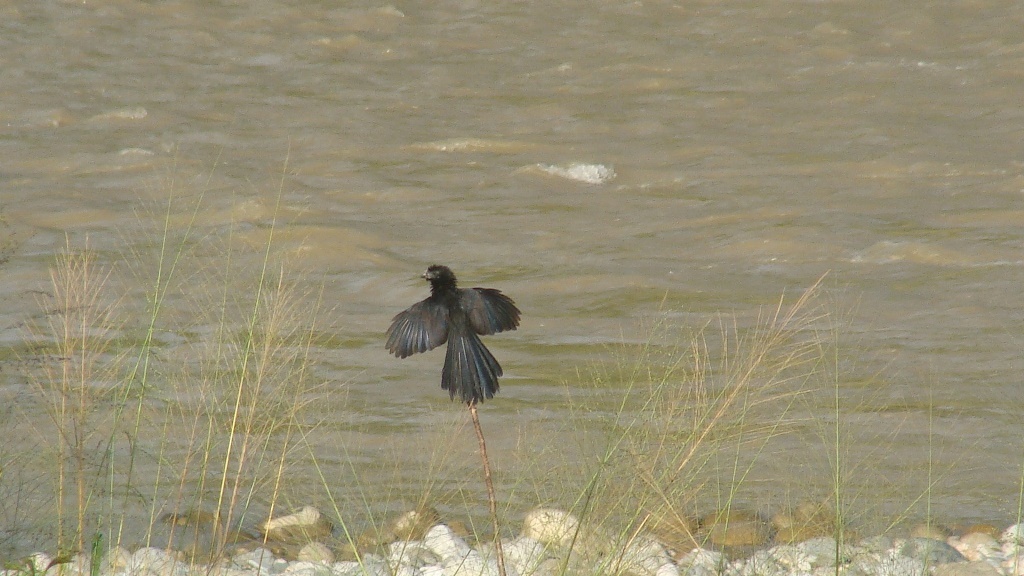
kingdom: Animalia
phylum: Chordata
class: Aves
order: Cuculiformes
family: Cuculidae
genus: Crotophaga
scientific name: Crotophaga sulcirostris
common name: Groove-billed ani
